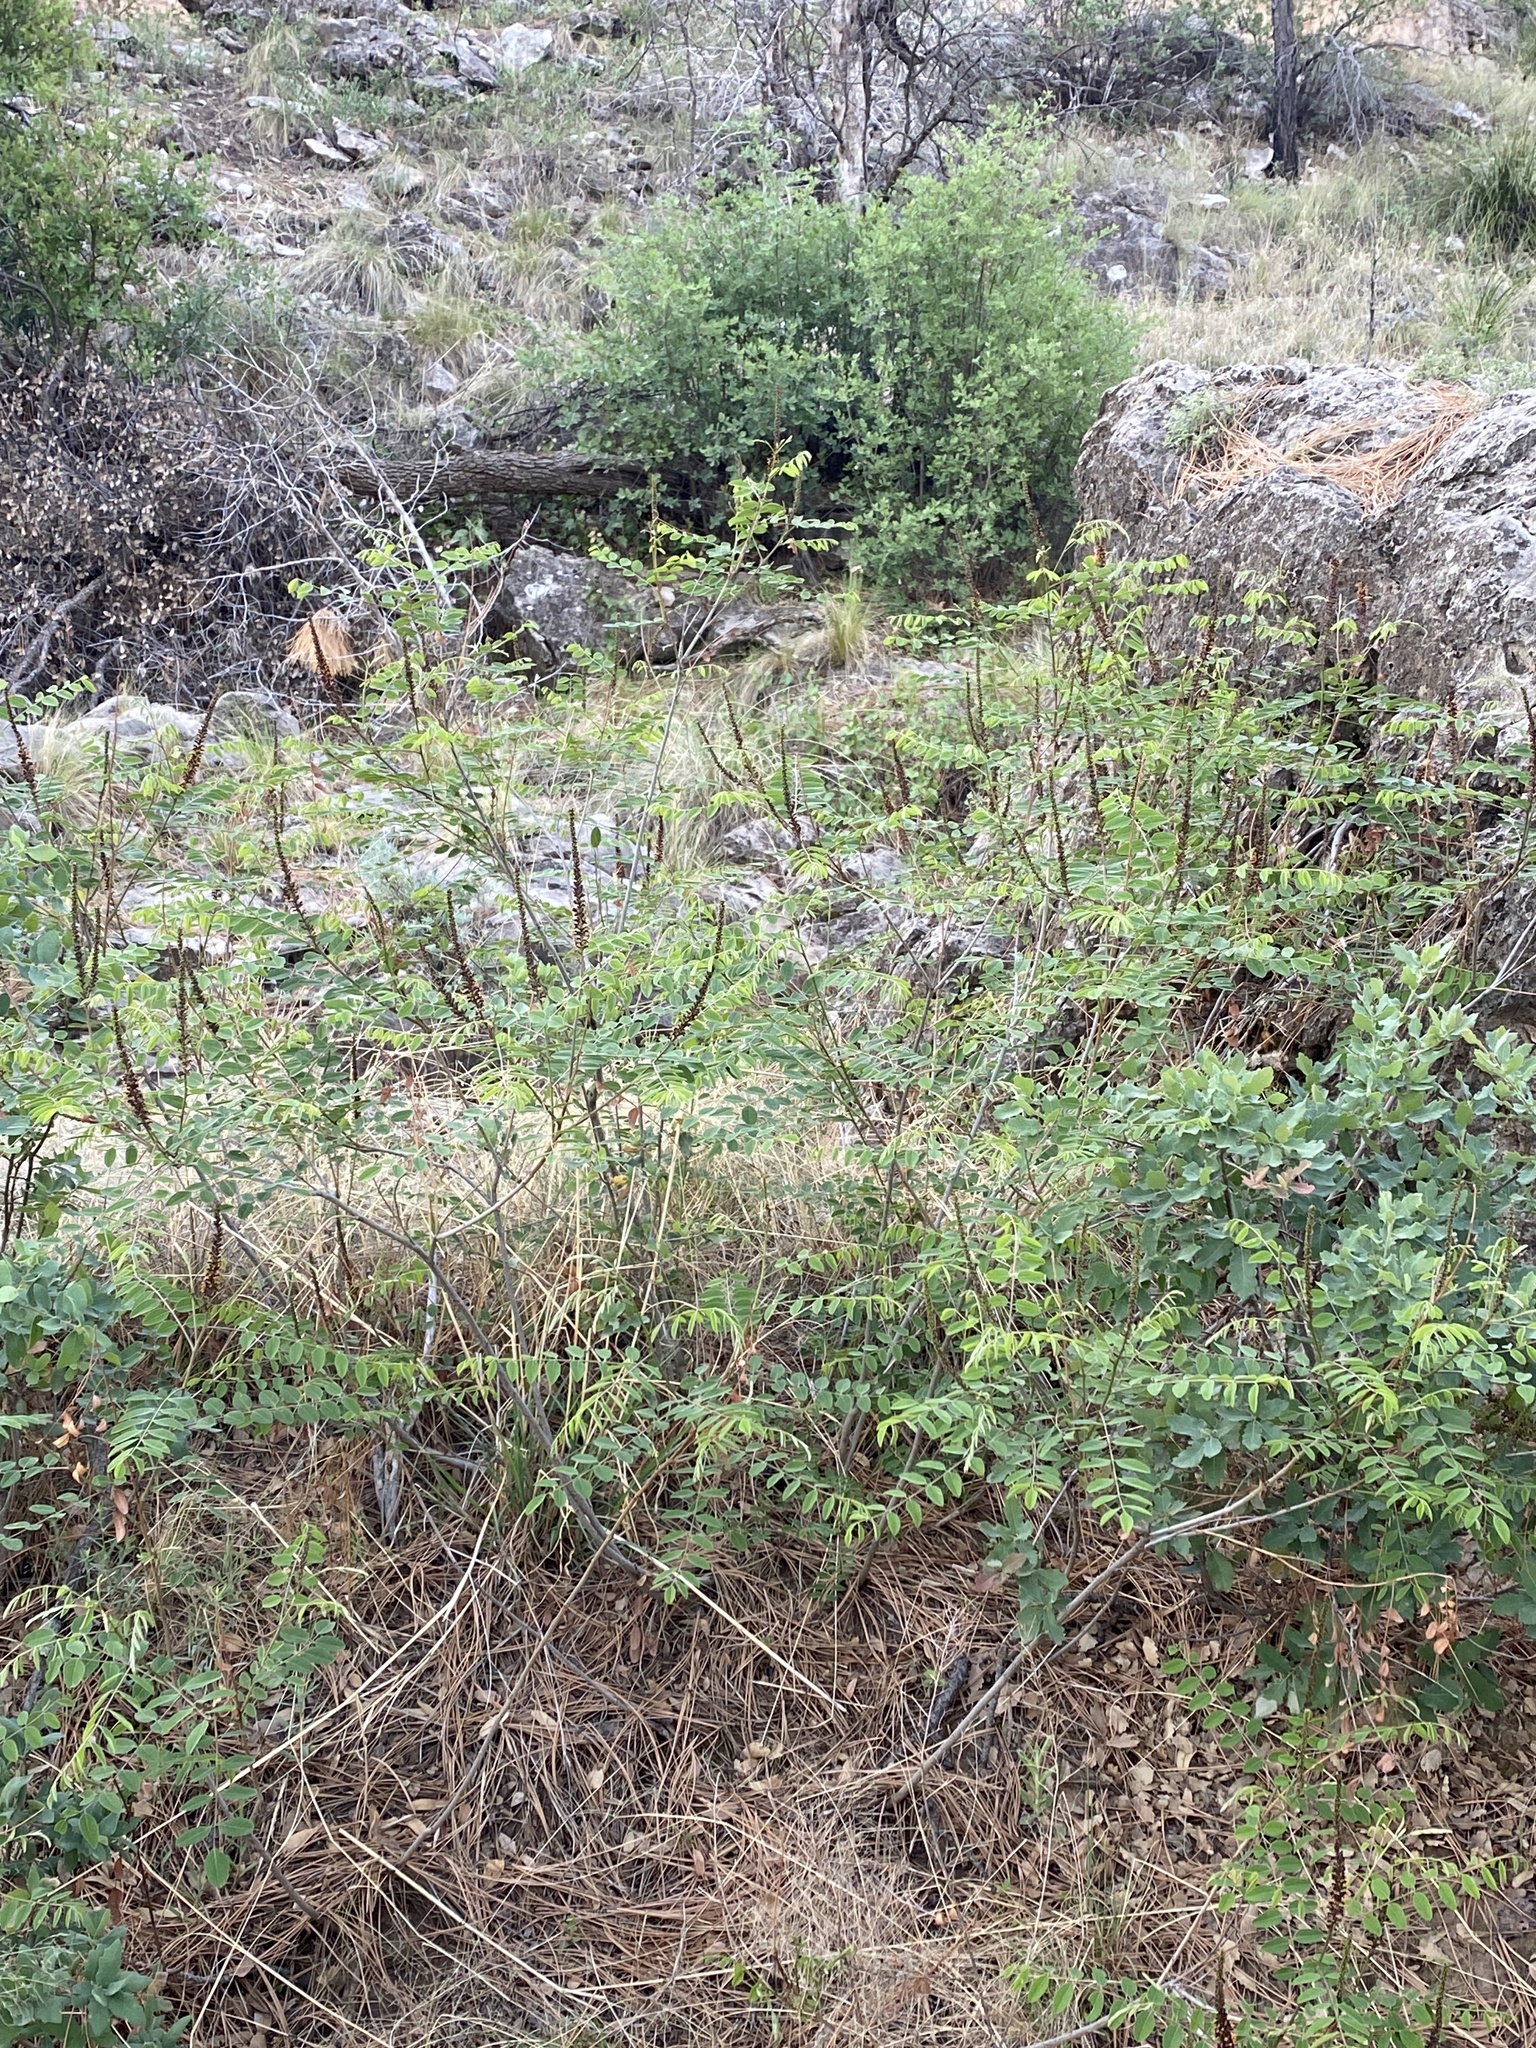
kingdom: Plantae
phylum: Tracheophyta
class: Magnoliopsida
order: Fabales
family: Fabaceae
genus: Amorpha
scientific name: Amorpha fruticosa
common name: False indigo
